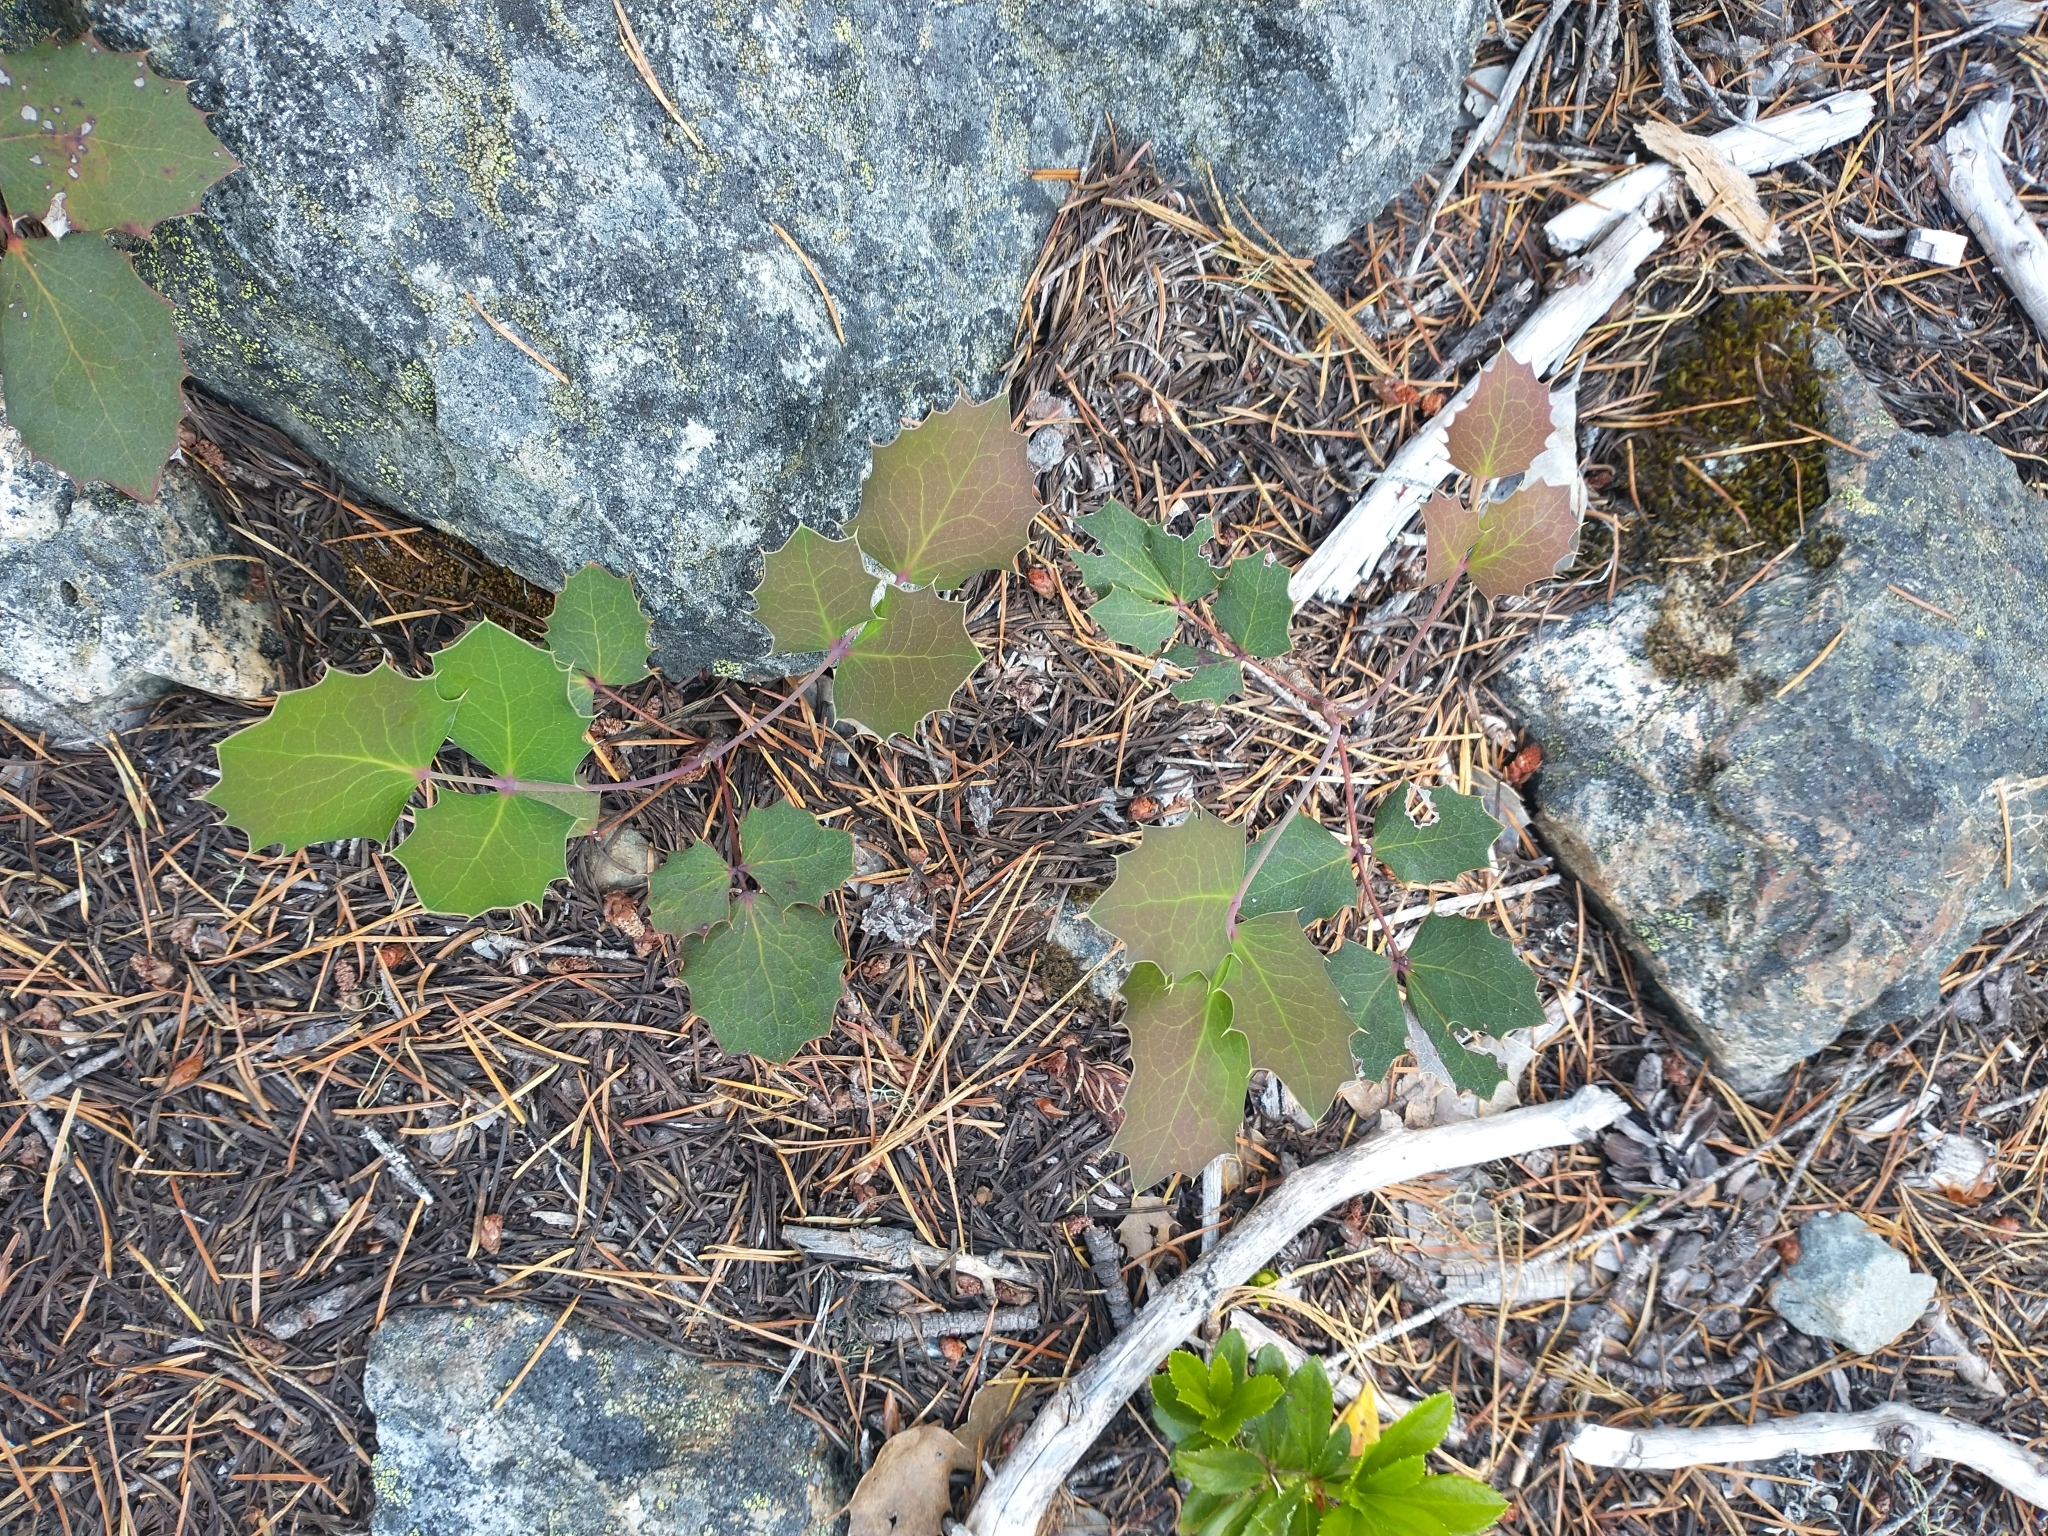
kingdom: Plantae
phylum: Tracheophyta
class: Magnoliopsida
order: Ranunculales
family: Berberidaceae
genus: Mahonia
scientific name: Mahonia repens
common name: Creeping oregon-grape
